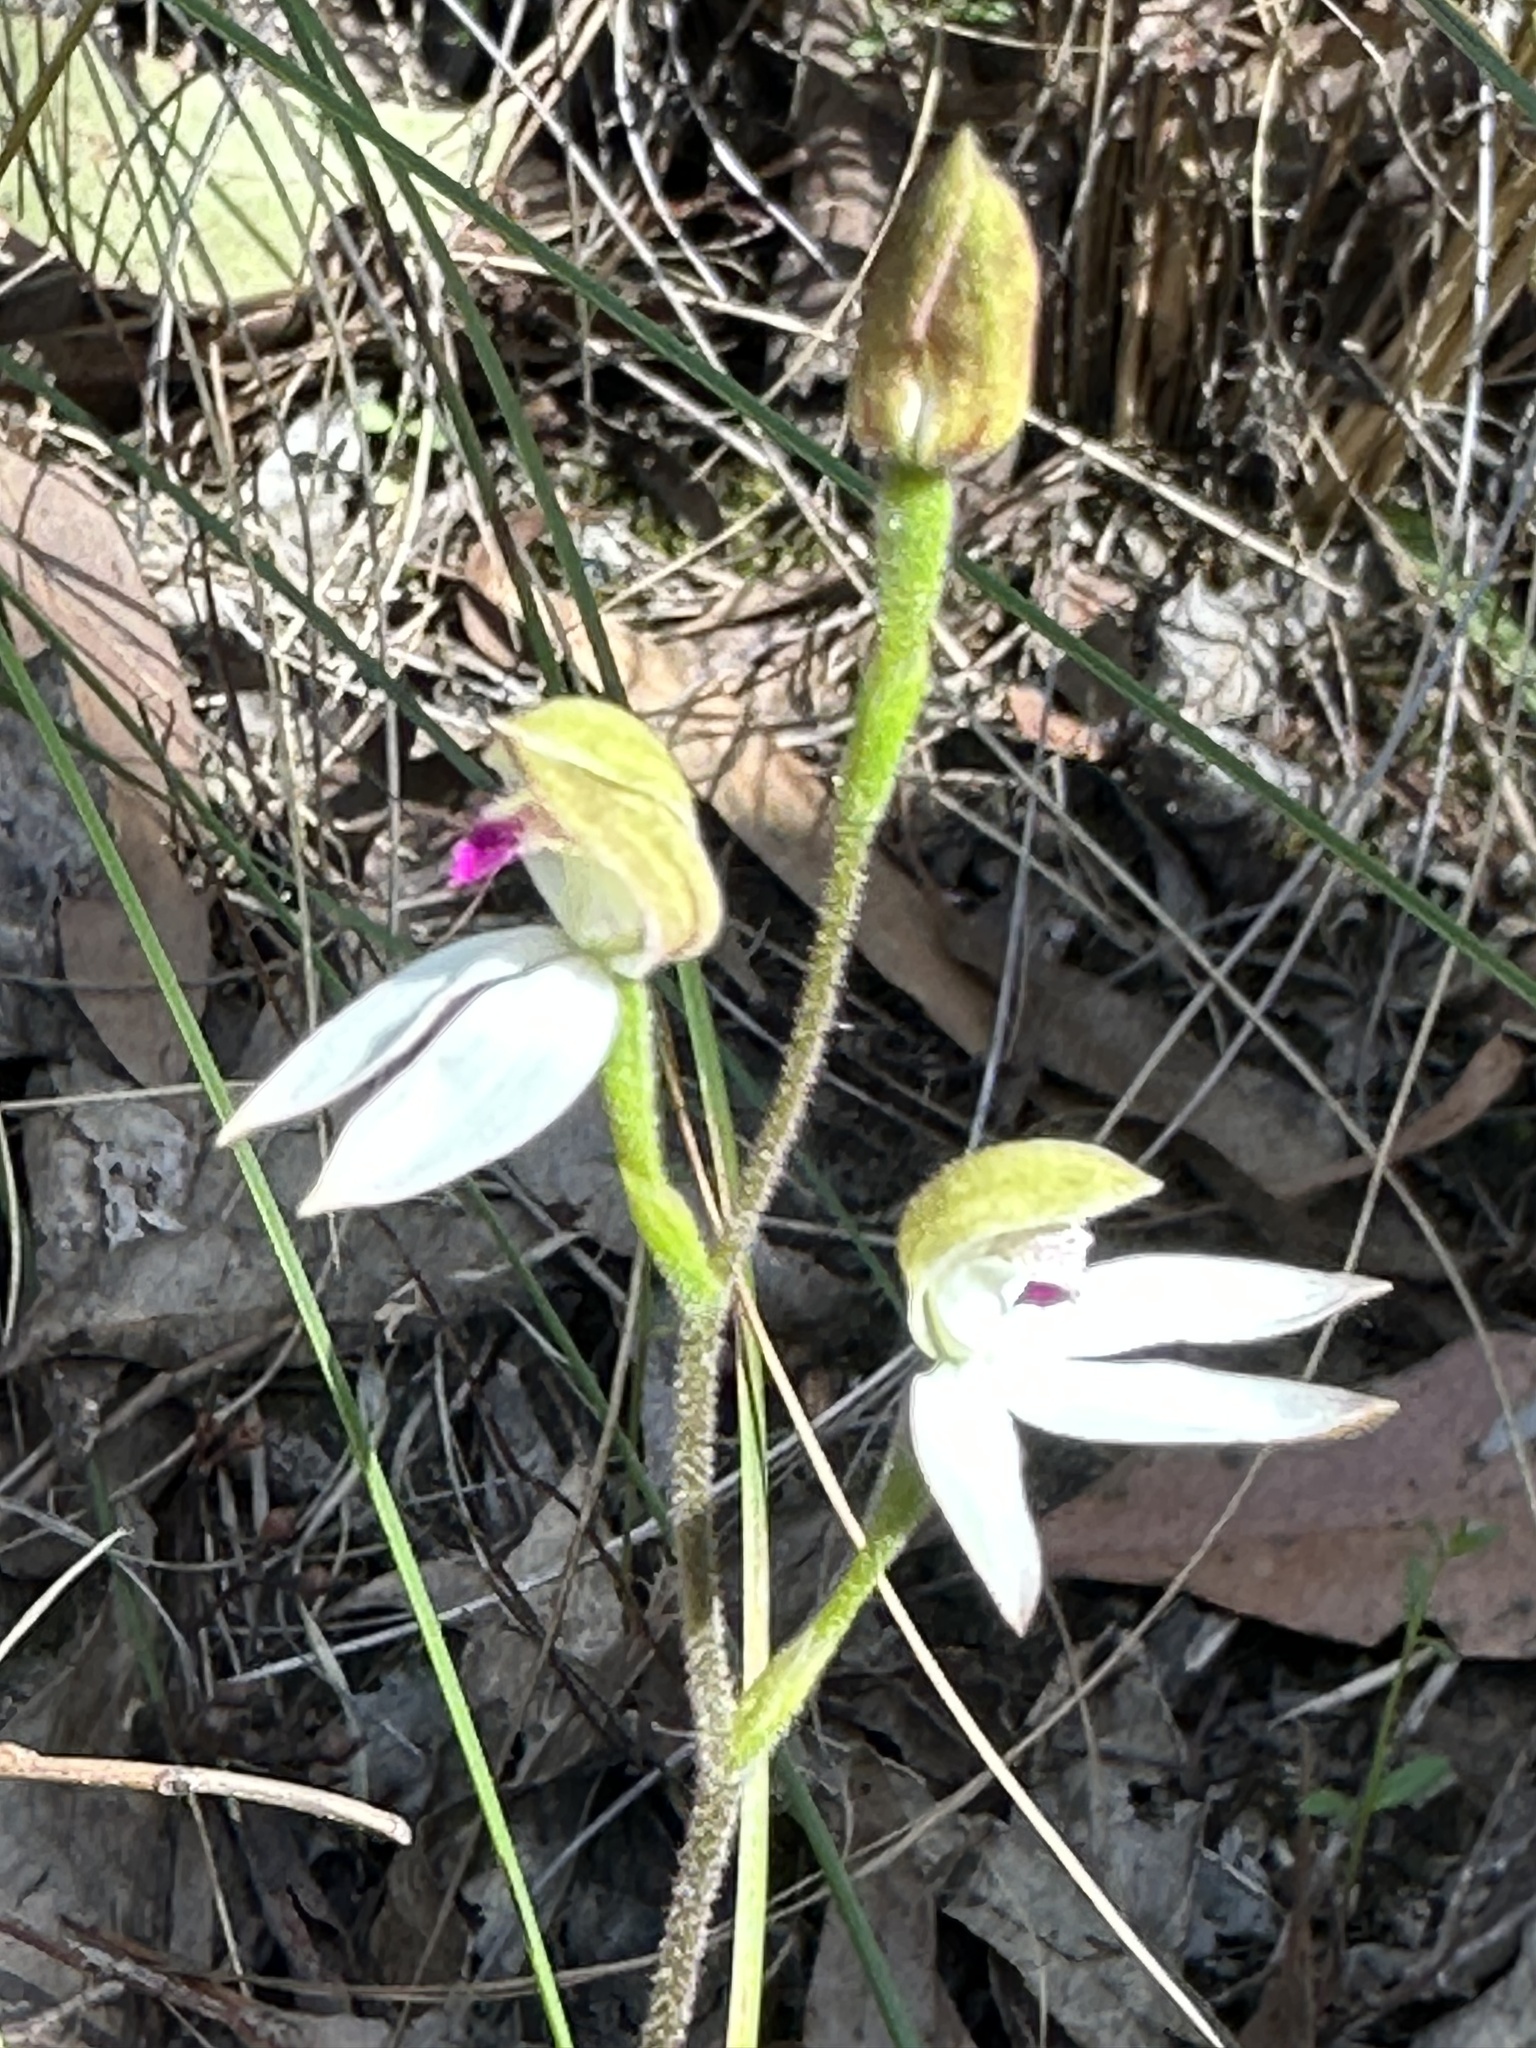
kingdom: Plantae
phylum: Tracheophyta
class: Liliopsida
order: Asparagales
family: Orchidaceae
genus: Caladenia
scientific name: Caladenia moschata
